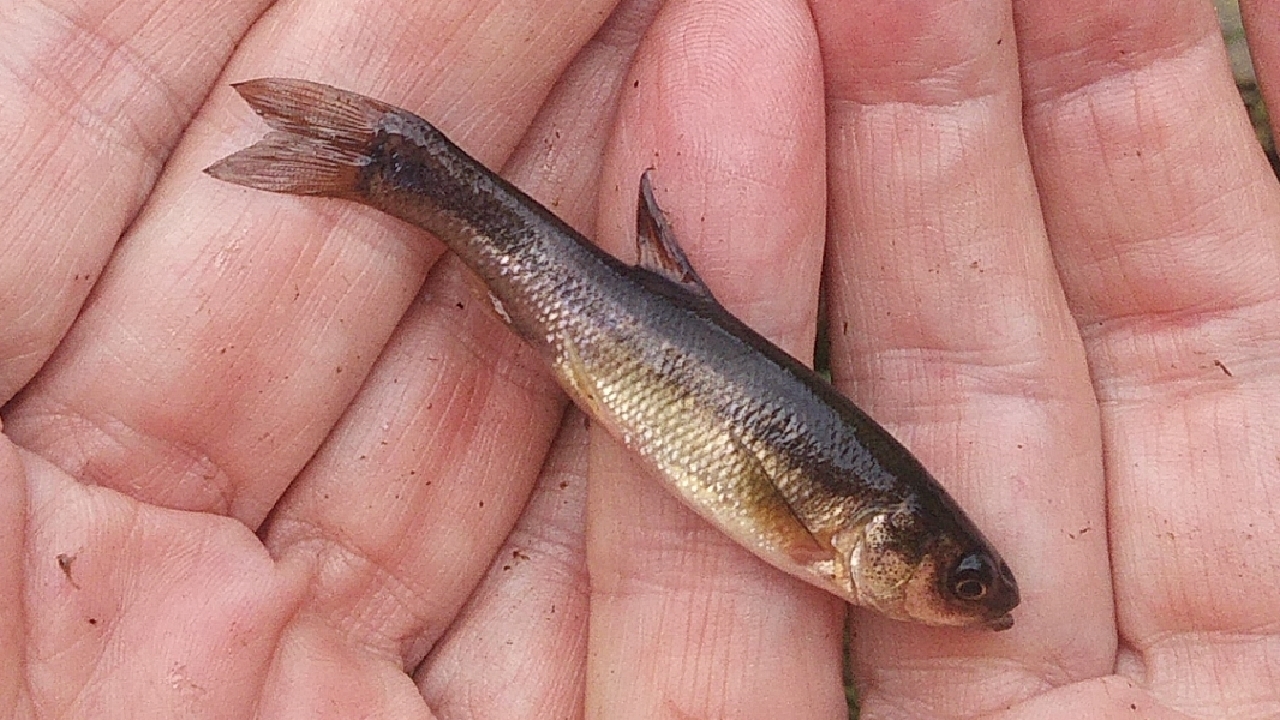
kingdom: Animalia
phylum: Chordata
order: Cypriniformes
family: Cyprinidae
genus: Pimephales
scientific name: Pimephales promelas
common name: Fathead minnow
